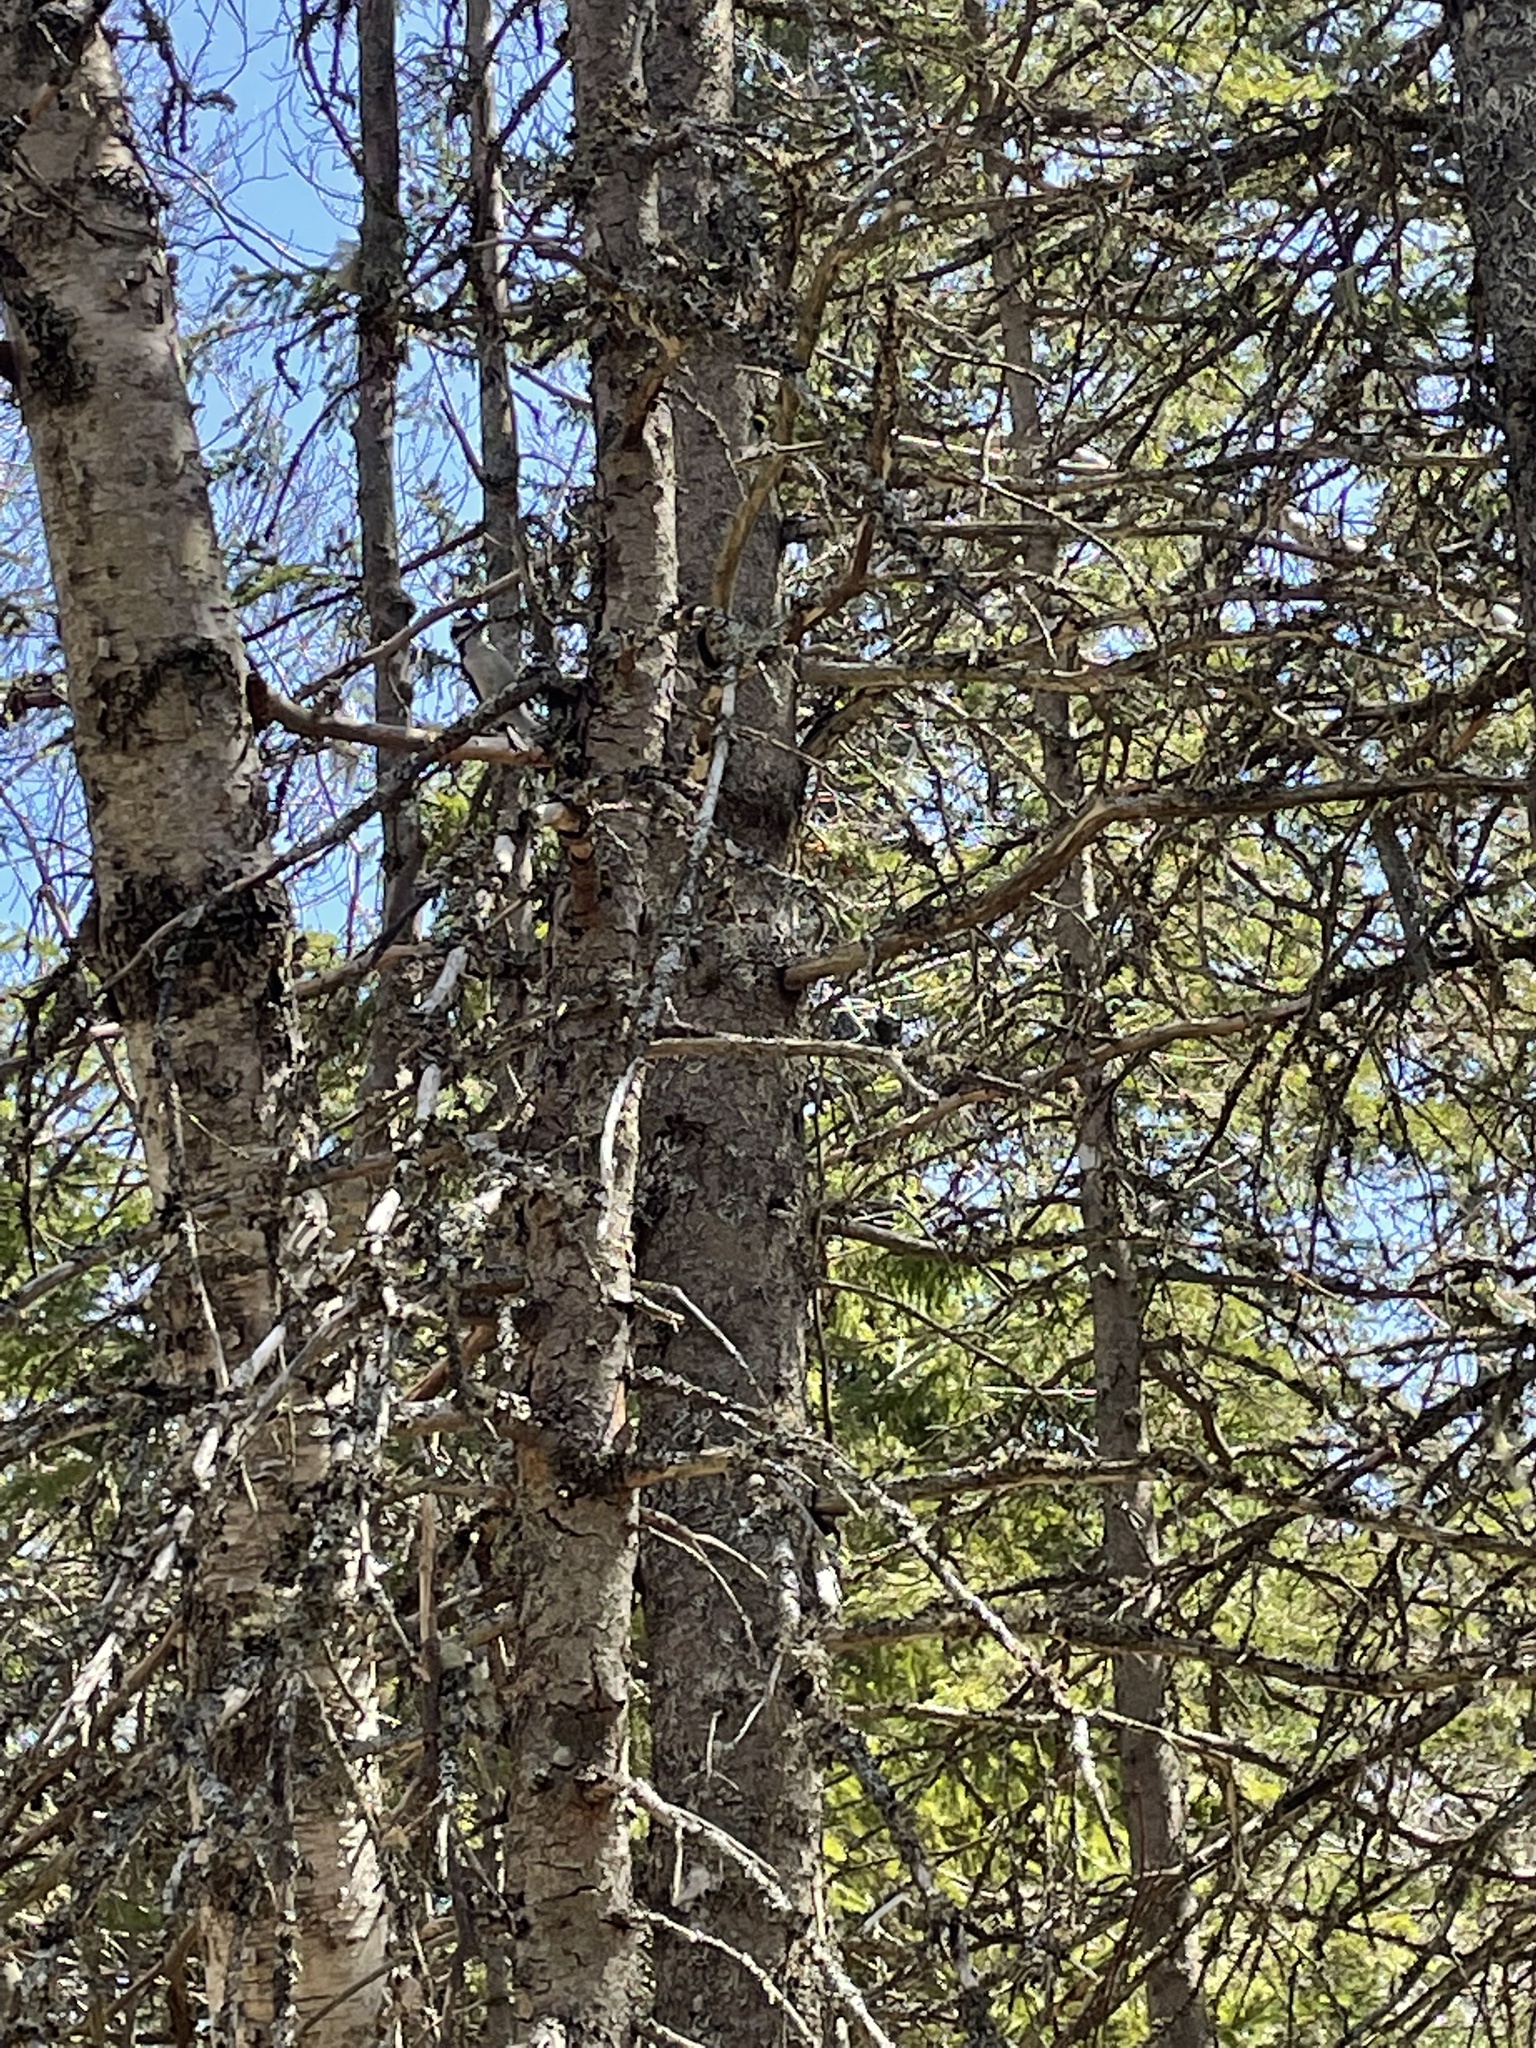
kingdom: Animalia
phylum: Chordata
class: Aves
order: Piciformes
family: Picidae
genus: Dryobates
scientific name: Dryobates pubescens
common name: Downy woodpecker
